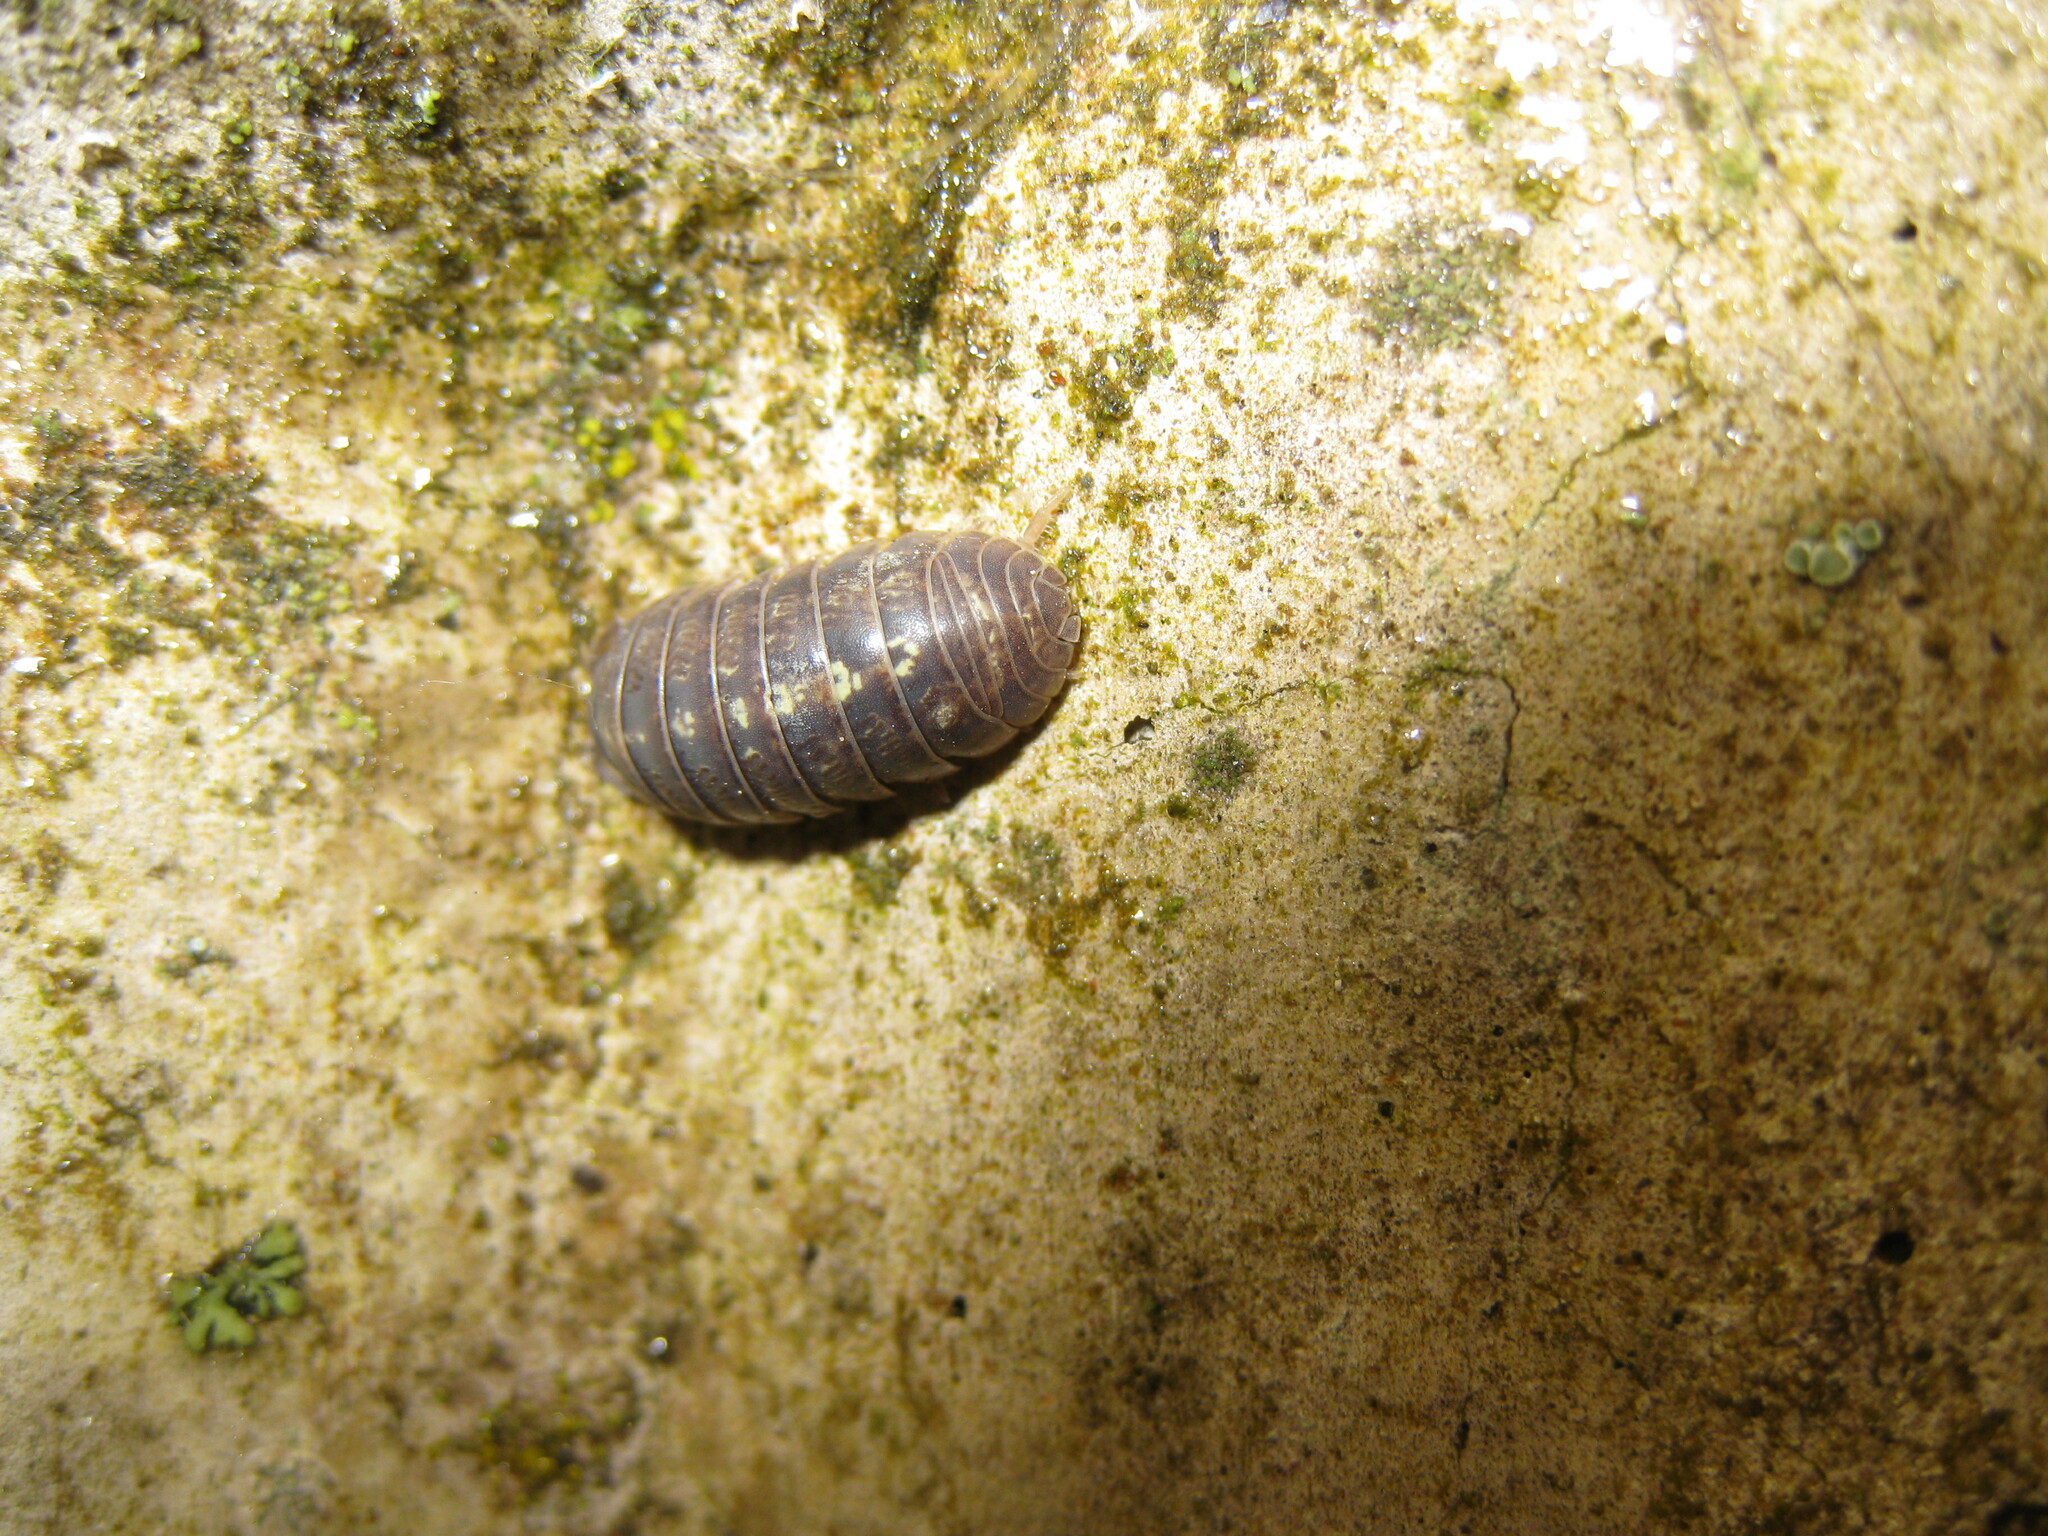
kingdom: Animalia
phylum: Arthropoda
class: Malacostraca
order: Isopoda
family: Armadillidiidae
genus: Armadillidium
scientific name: Armadillidium vulgare
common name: Common pill woodlouse
